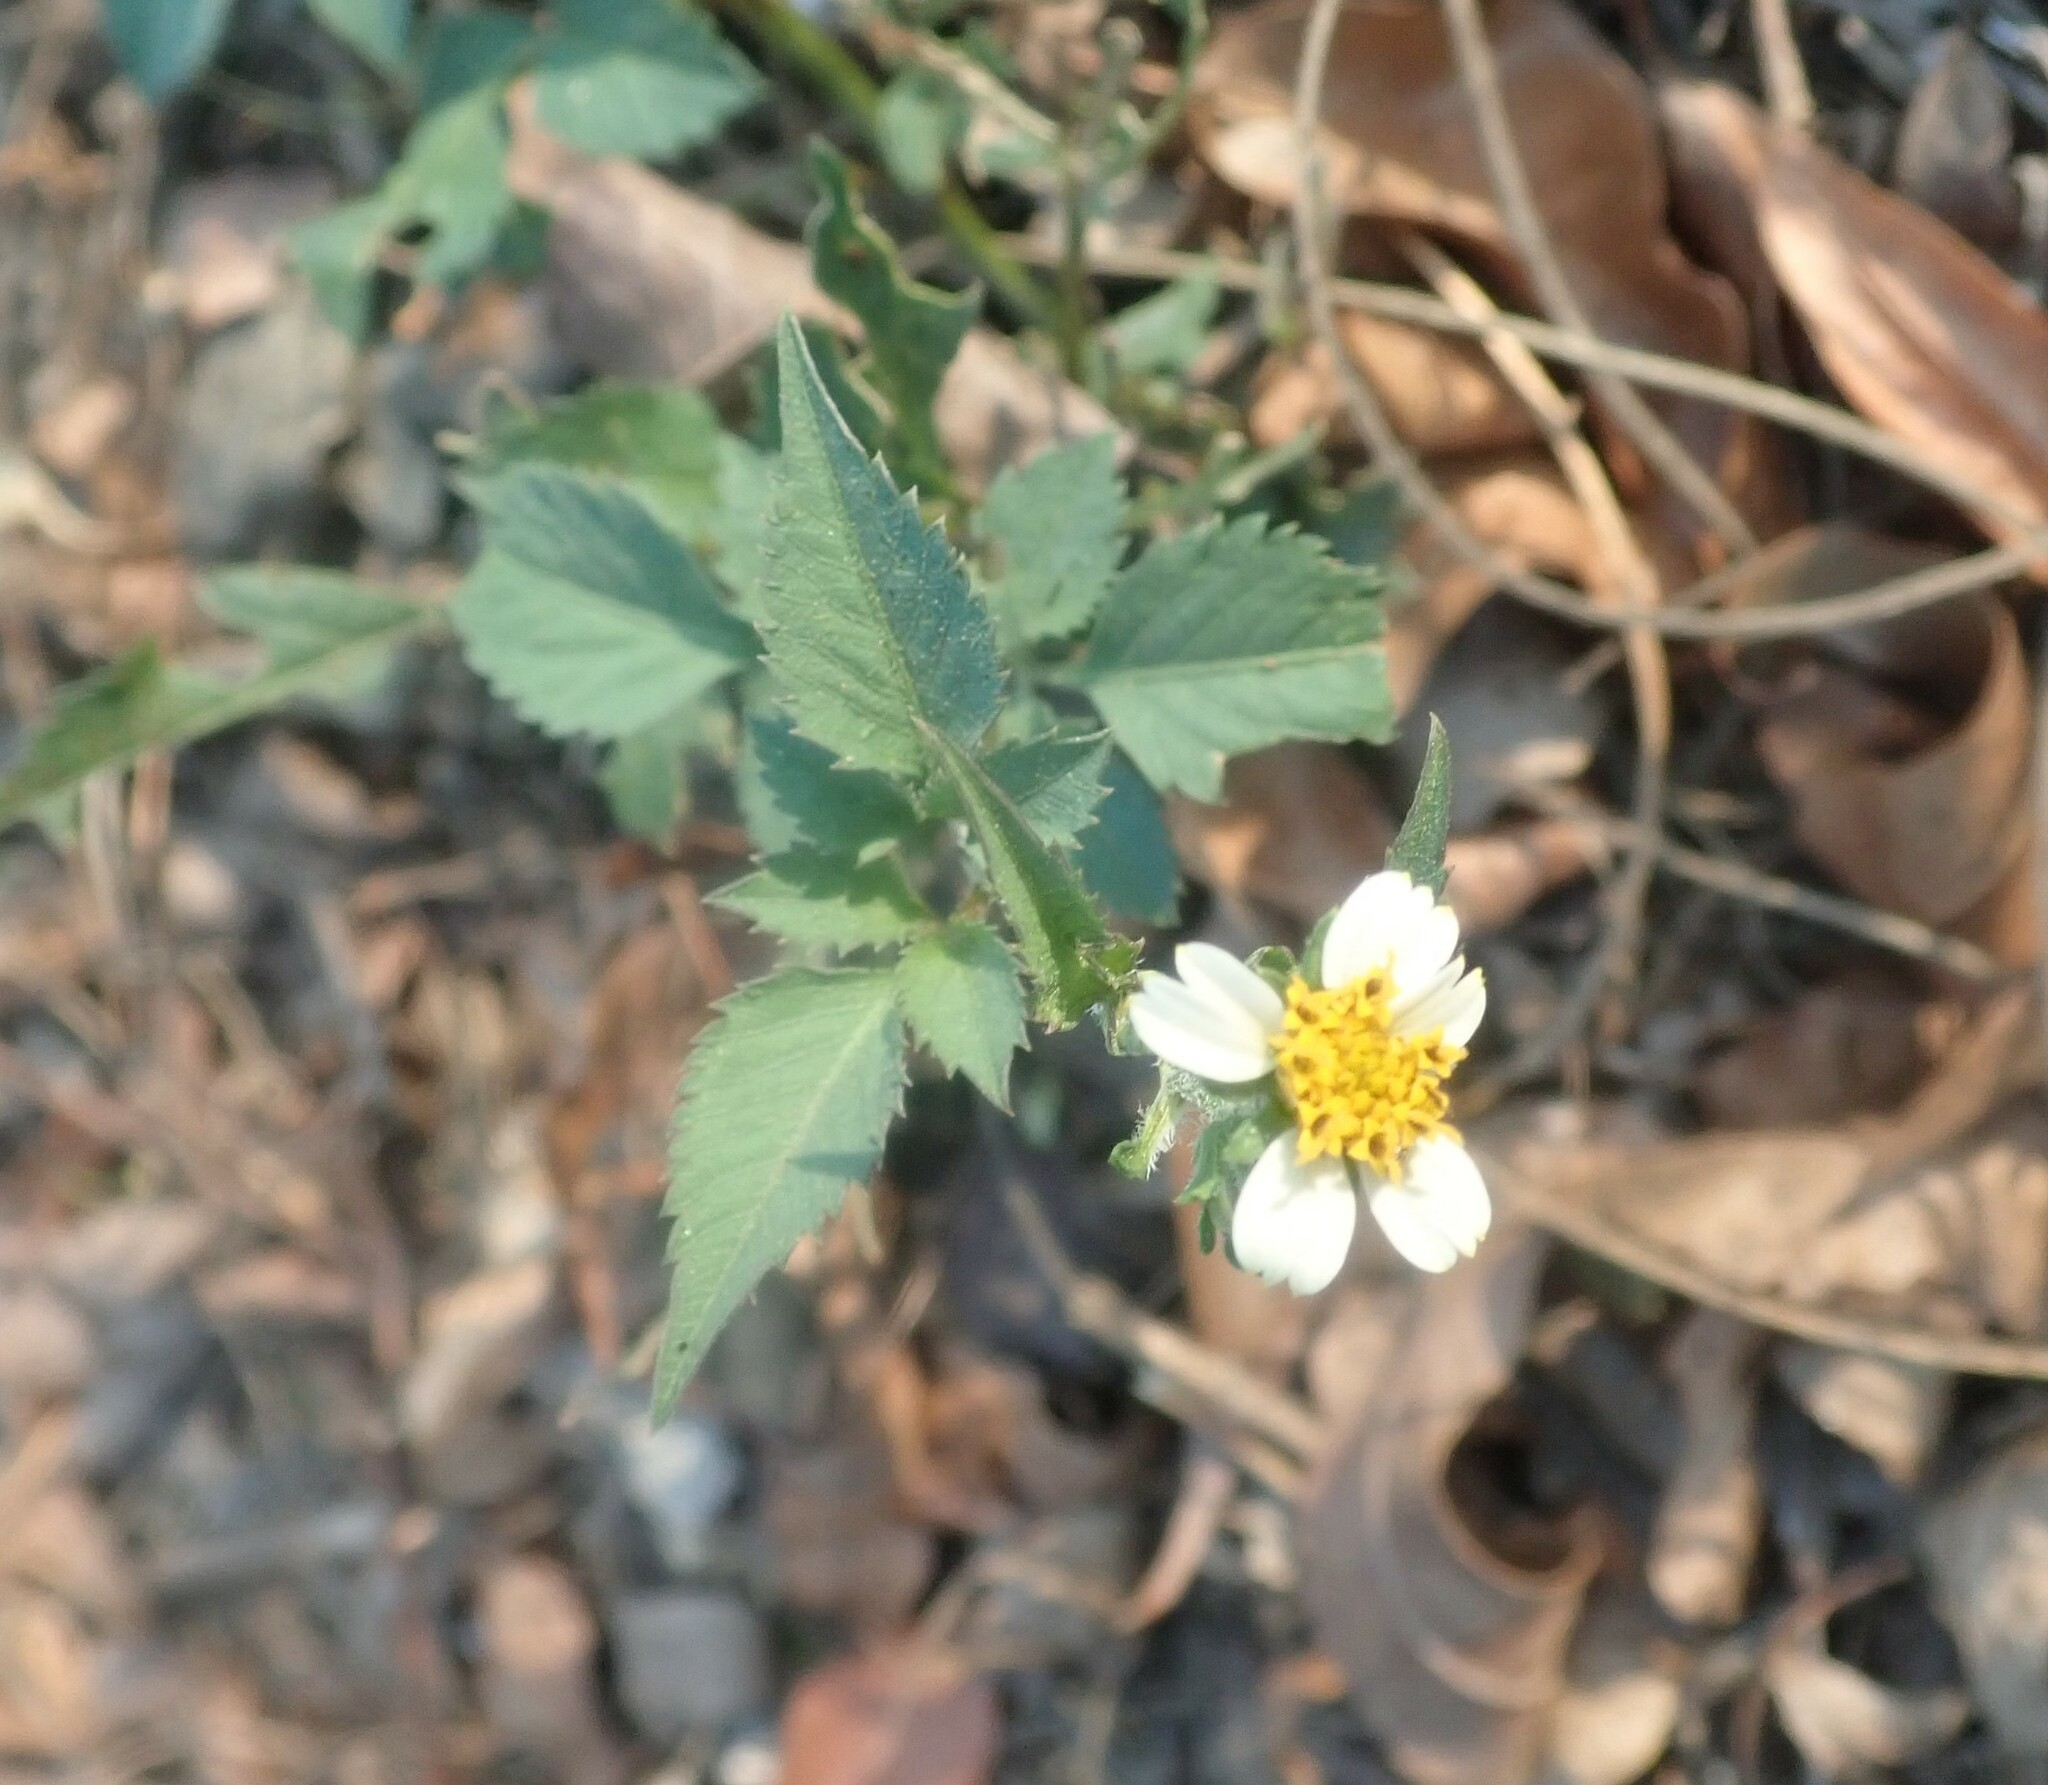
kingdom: Plantae
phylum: Tracheophyta
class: Magnoliopsida
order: Asterales
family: Asteraceae
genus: Bidens
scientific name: Bidens pilosa
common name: Black-jack
